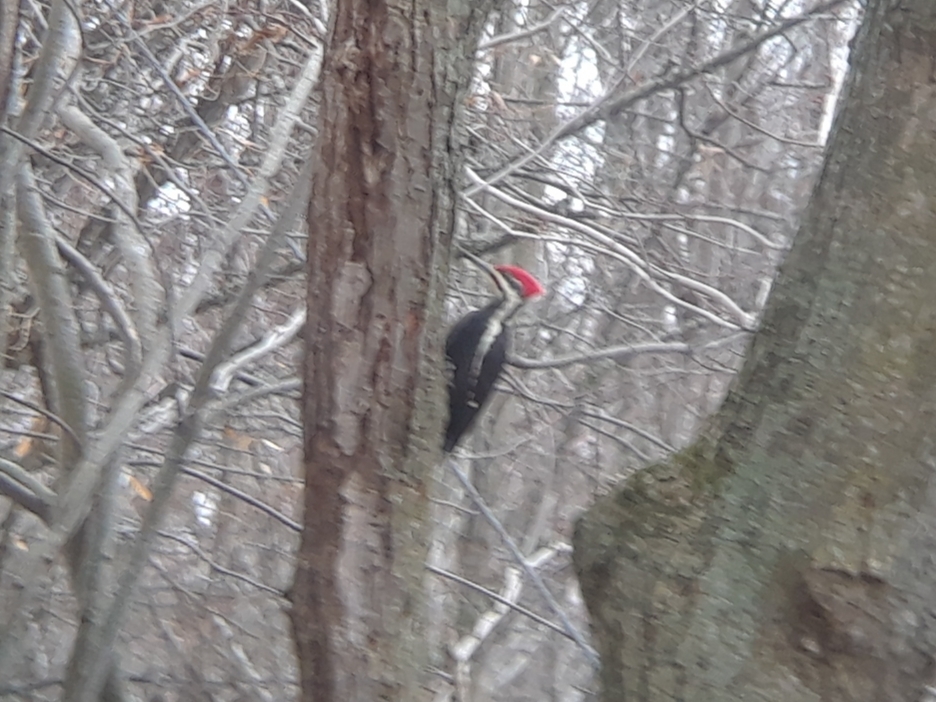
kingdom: Animalia
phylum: Chordata
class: Aves
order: Piciformes
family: Picidae
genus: Dryocopus
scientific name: Dryocopus pileatus
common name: Pileated woodpecker
